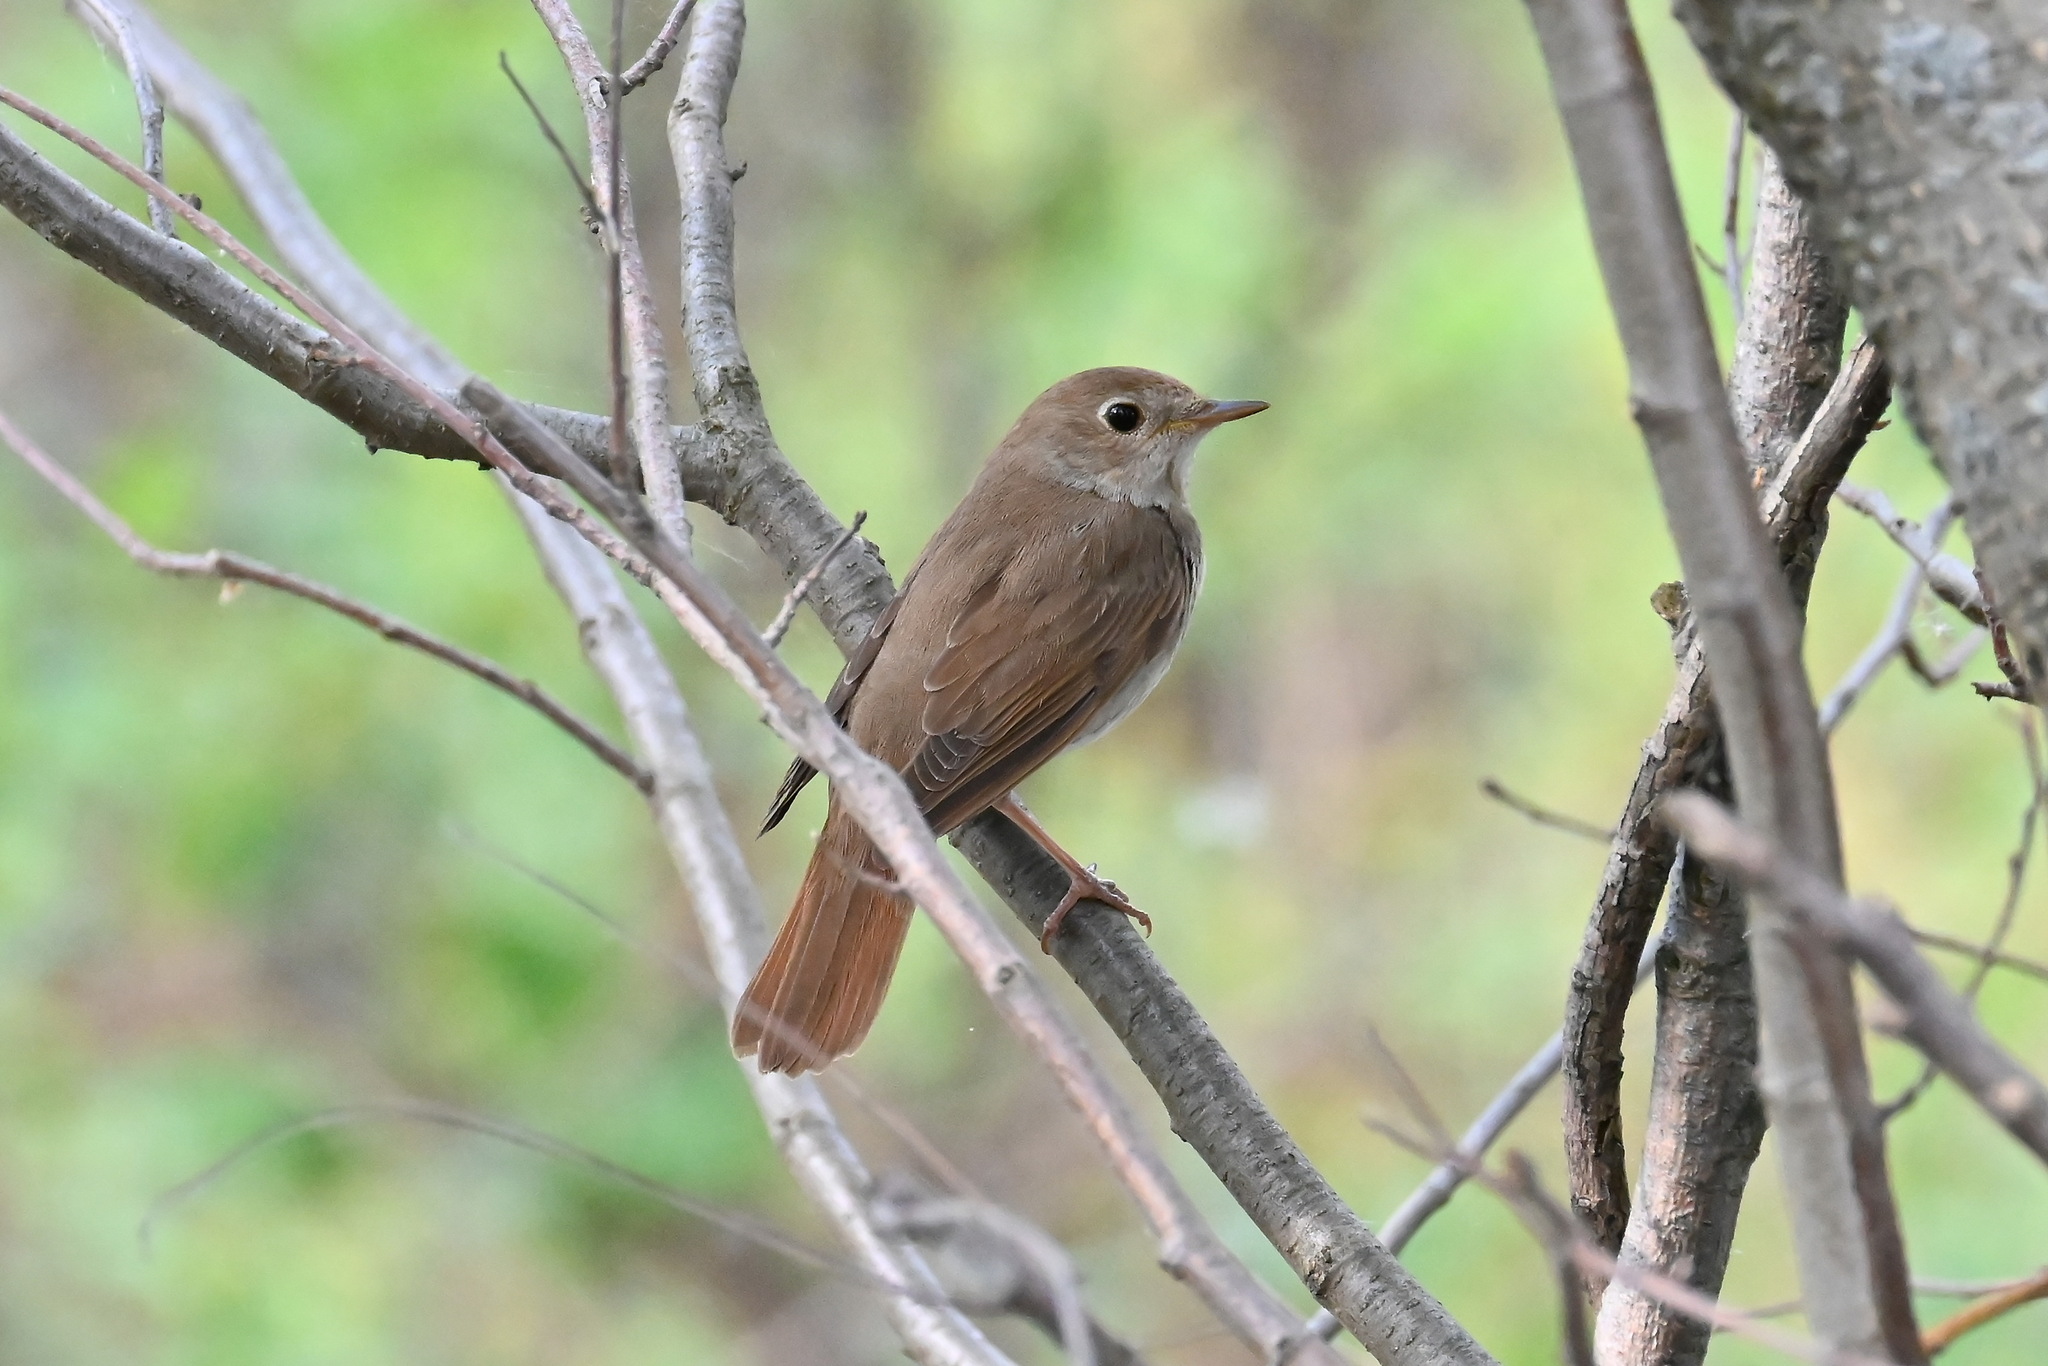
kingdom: Animalia
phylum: Chordata
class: Aves
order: Passeriformes
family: Muscicapidae
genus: Luscinia
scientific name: Luscinia luscinia
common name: Thrush nightingale
